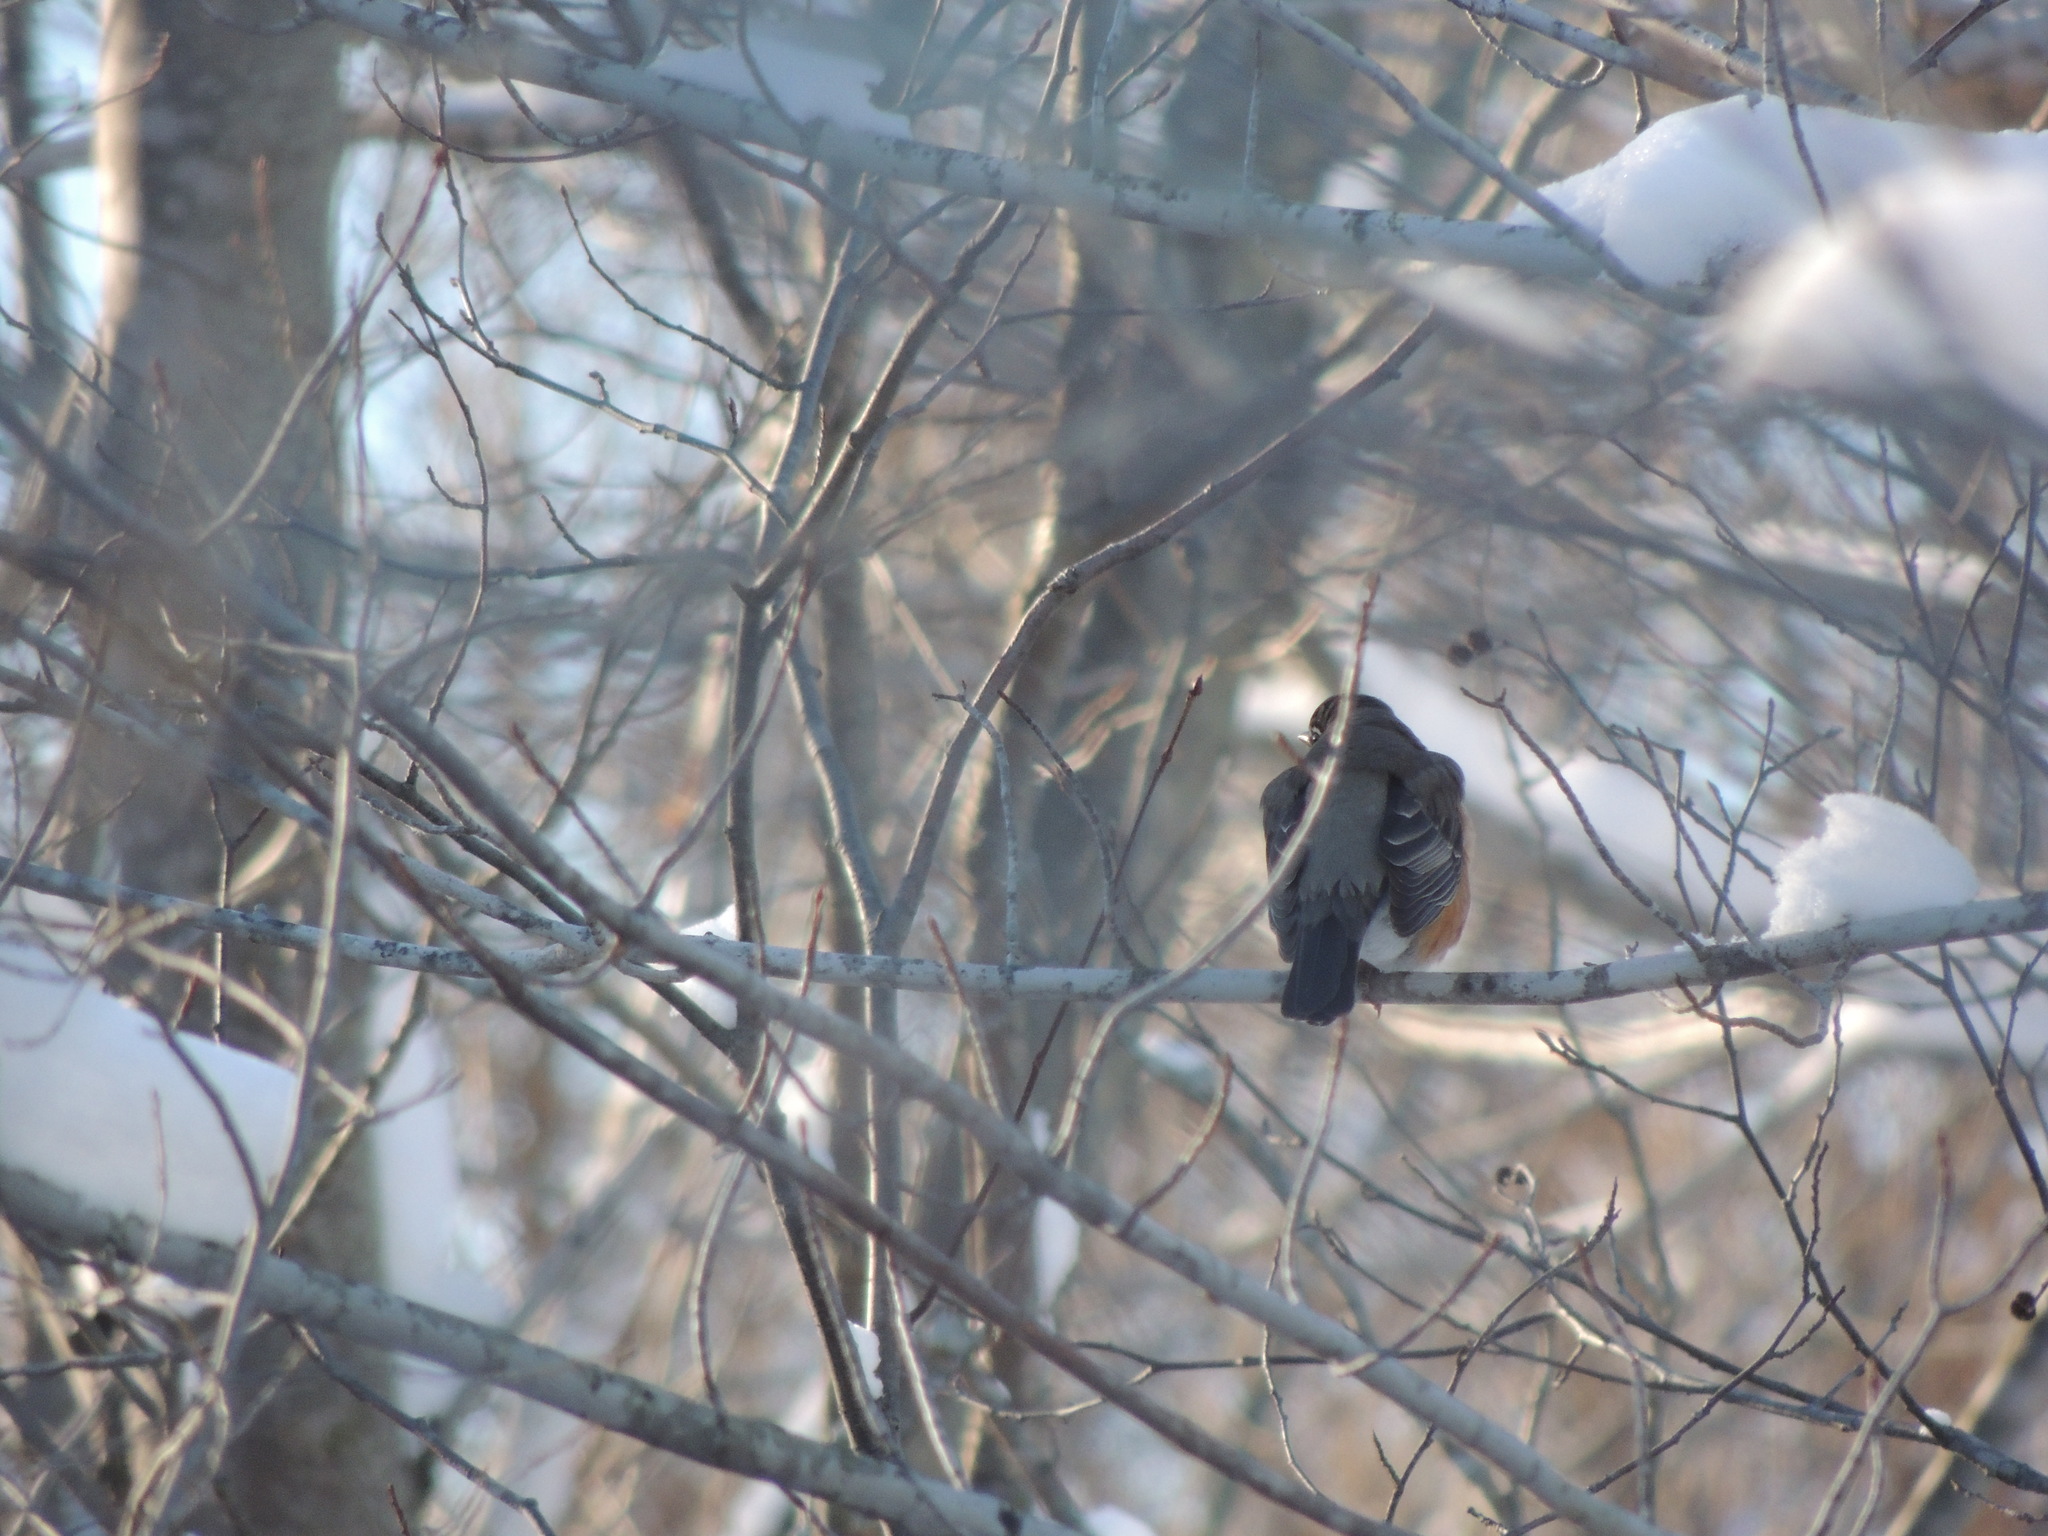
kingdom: Animalia
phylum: Chordata
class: Aves
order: Passeriformes
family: Turdidae
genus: Turdus
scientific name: Turdus migratorius
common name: American robin
